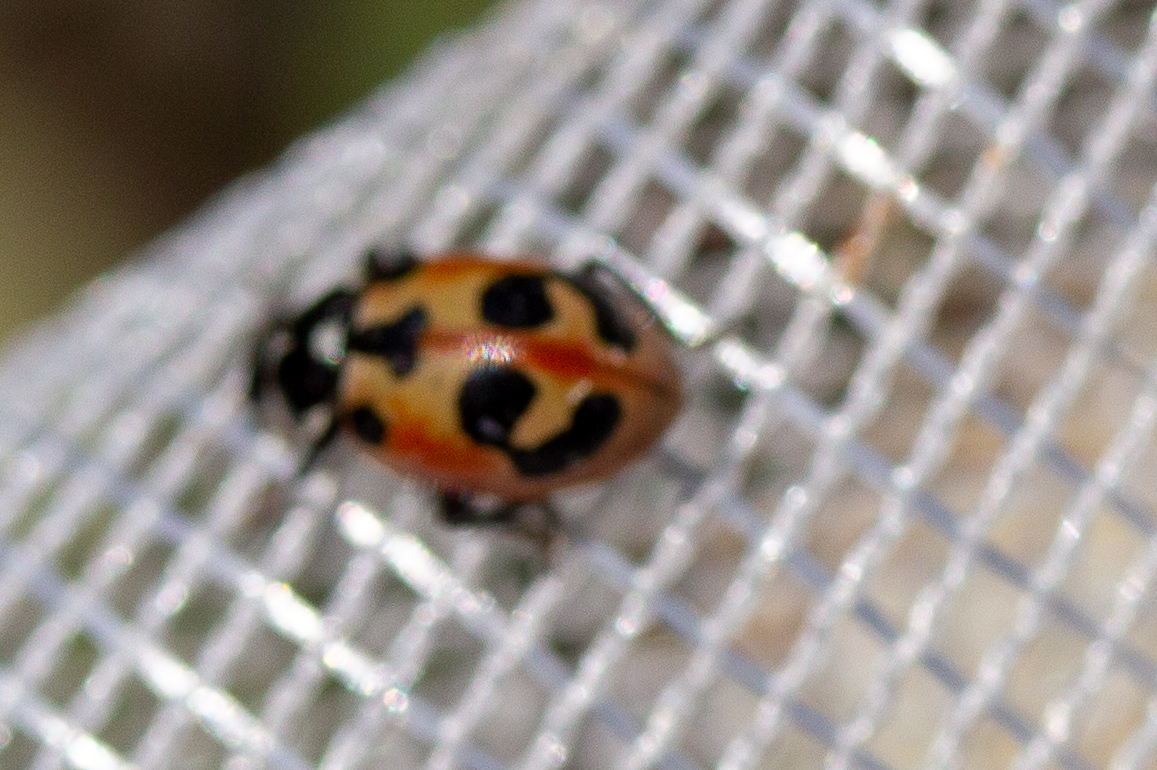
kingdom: Animalia
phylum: Arthropoda
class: Insecta
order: Coleoptera
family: Coccinellidae
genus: Hippodamia
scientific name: Hippodamia parenthesis
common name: Parenthesis lady beetle
